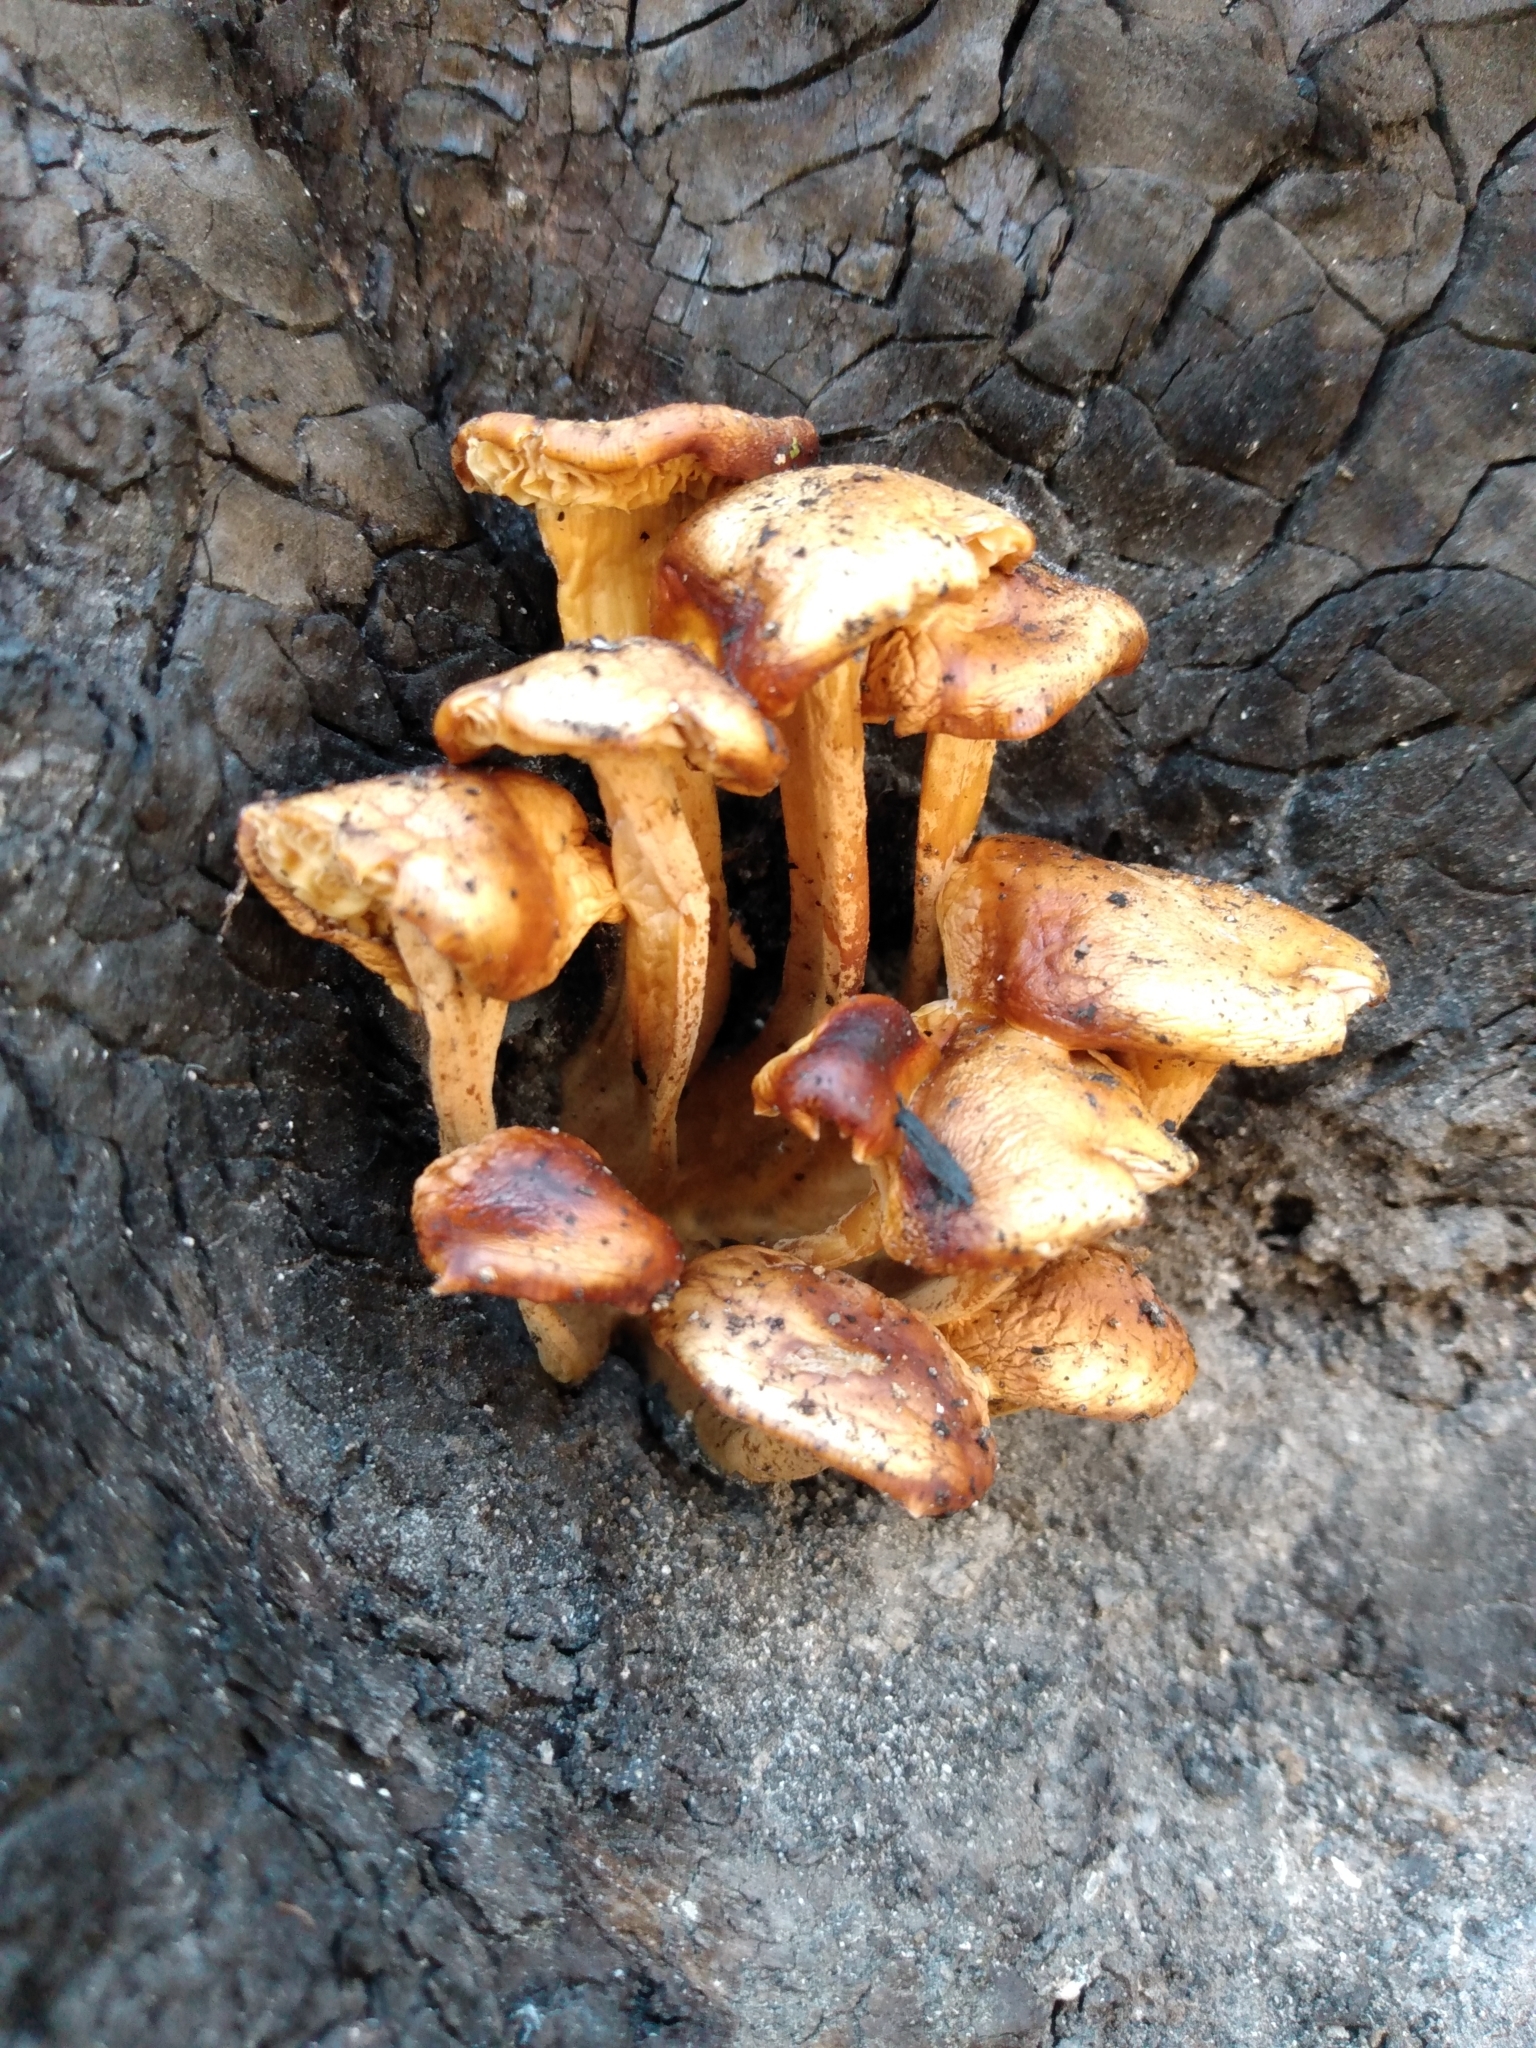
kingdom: Fungi
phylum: Basidiomycota
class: Agaricomycetes
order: Agaricales
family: Physalacriaceae
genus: Flammulina
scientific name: Flammulina velutipes
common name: Velvet shank
